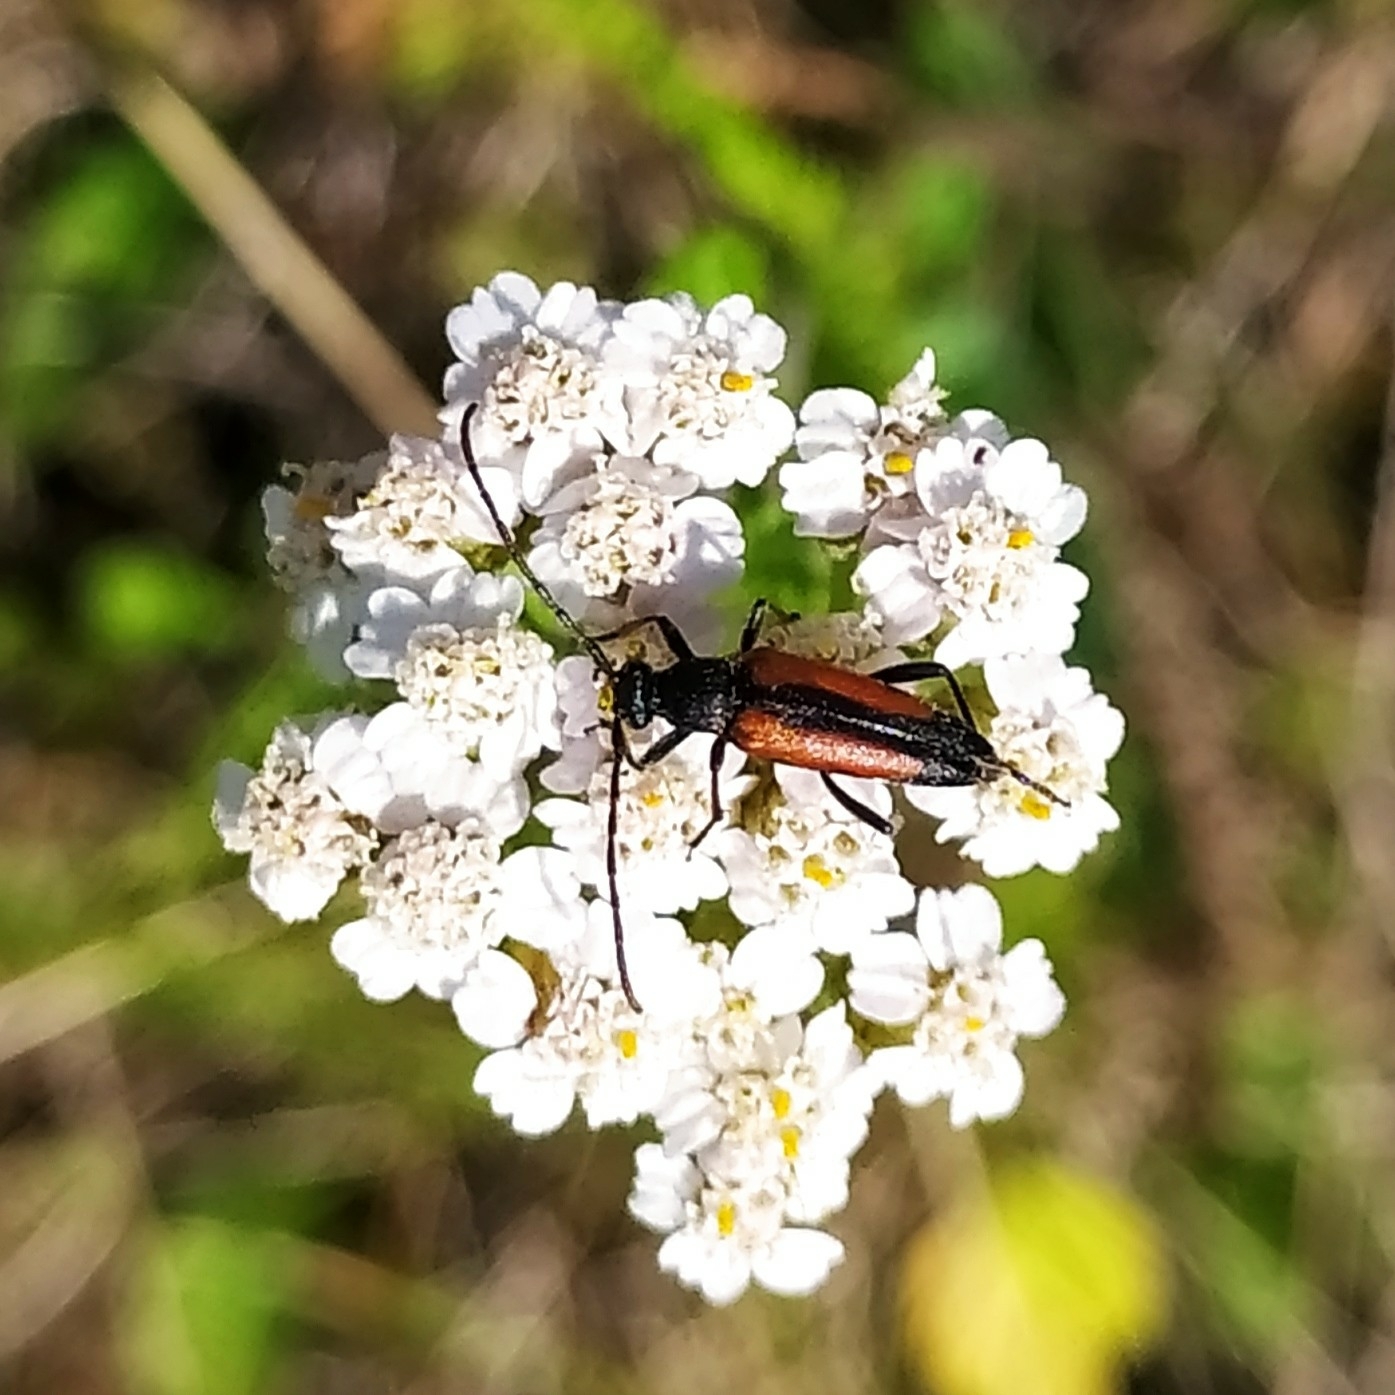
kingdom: Animalia
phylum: Arthropoda
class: Insecta
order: Coleoptera
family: Cerambycidae
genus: Stenurella
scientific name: Stenurella melanura
